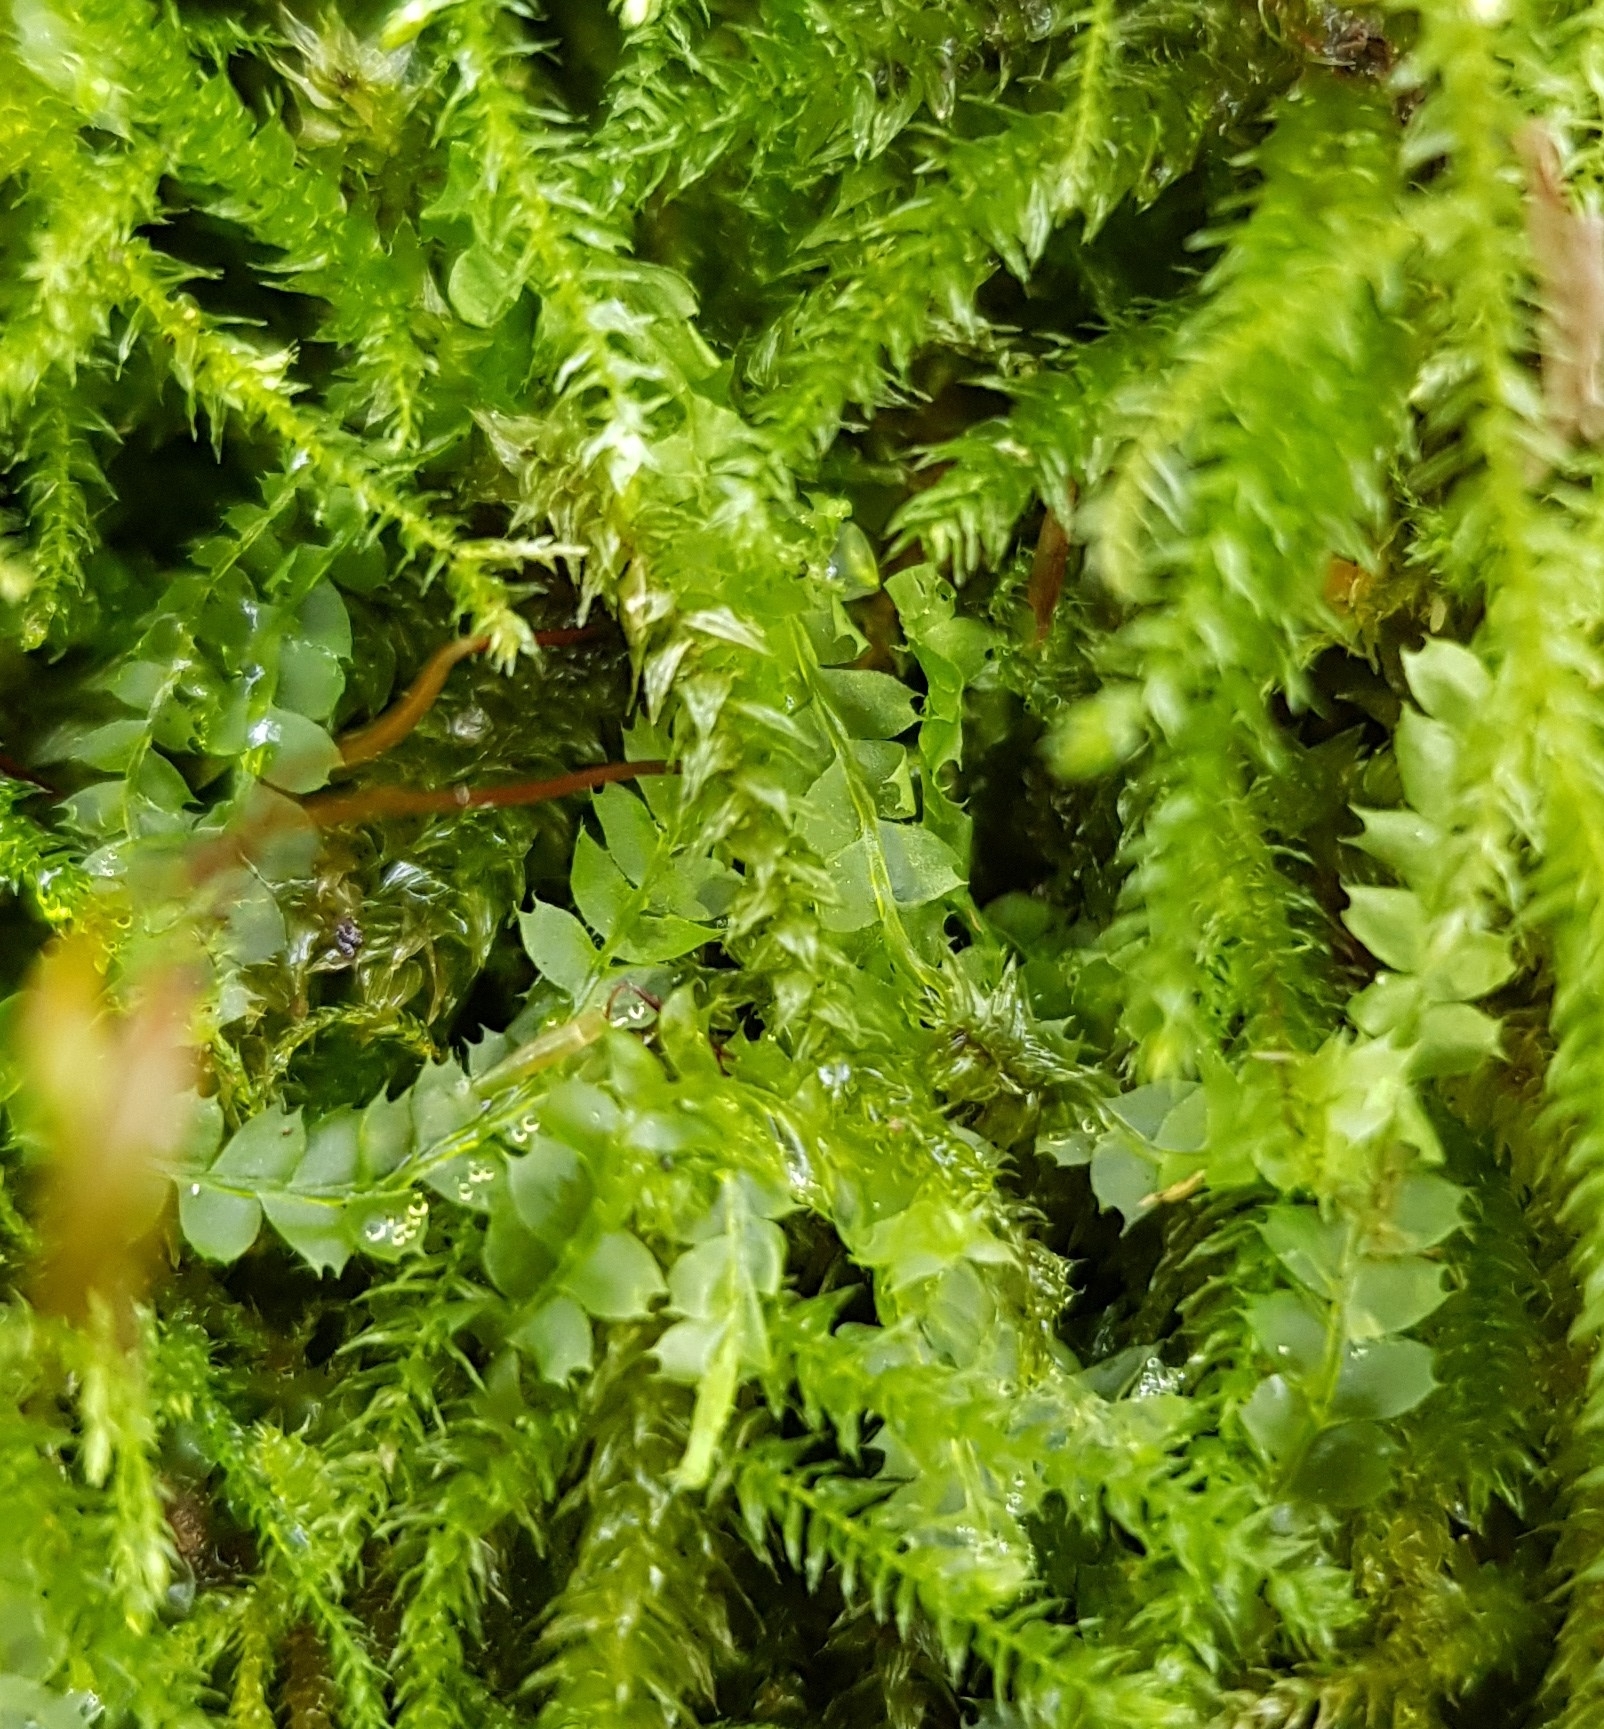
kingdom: Plantae
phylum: Marchantiophyta
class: Jungermanniopsida
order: Jungermanniales
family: Lophocoleaceae
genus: Lophocolea
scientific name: Lophocolea bidentata
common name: Bifid crestwort
